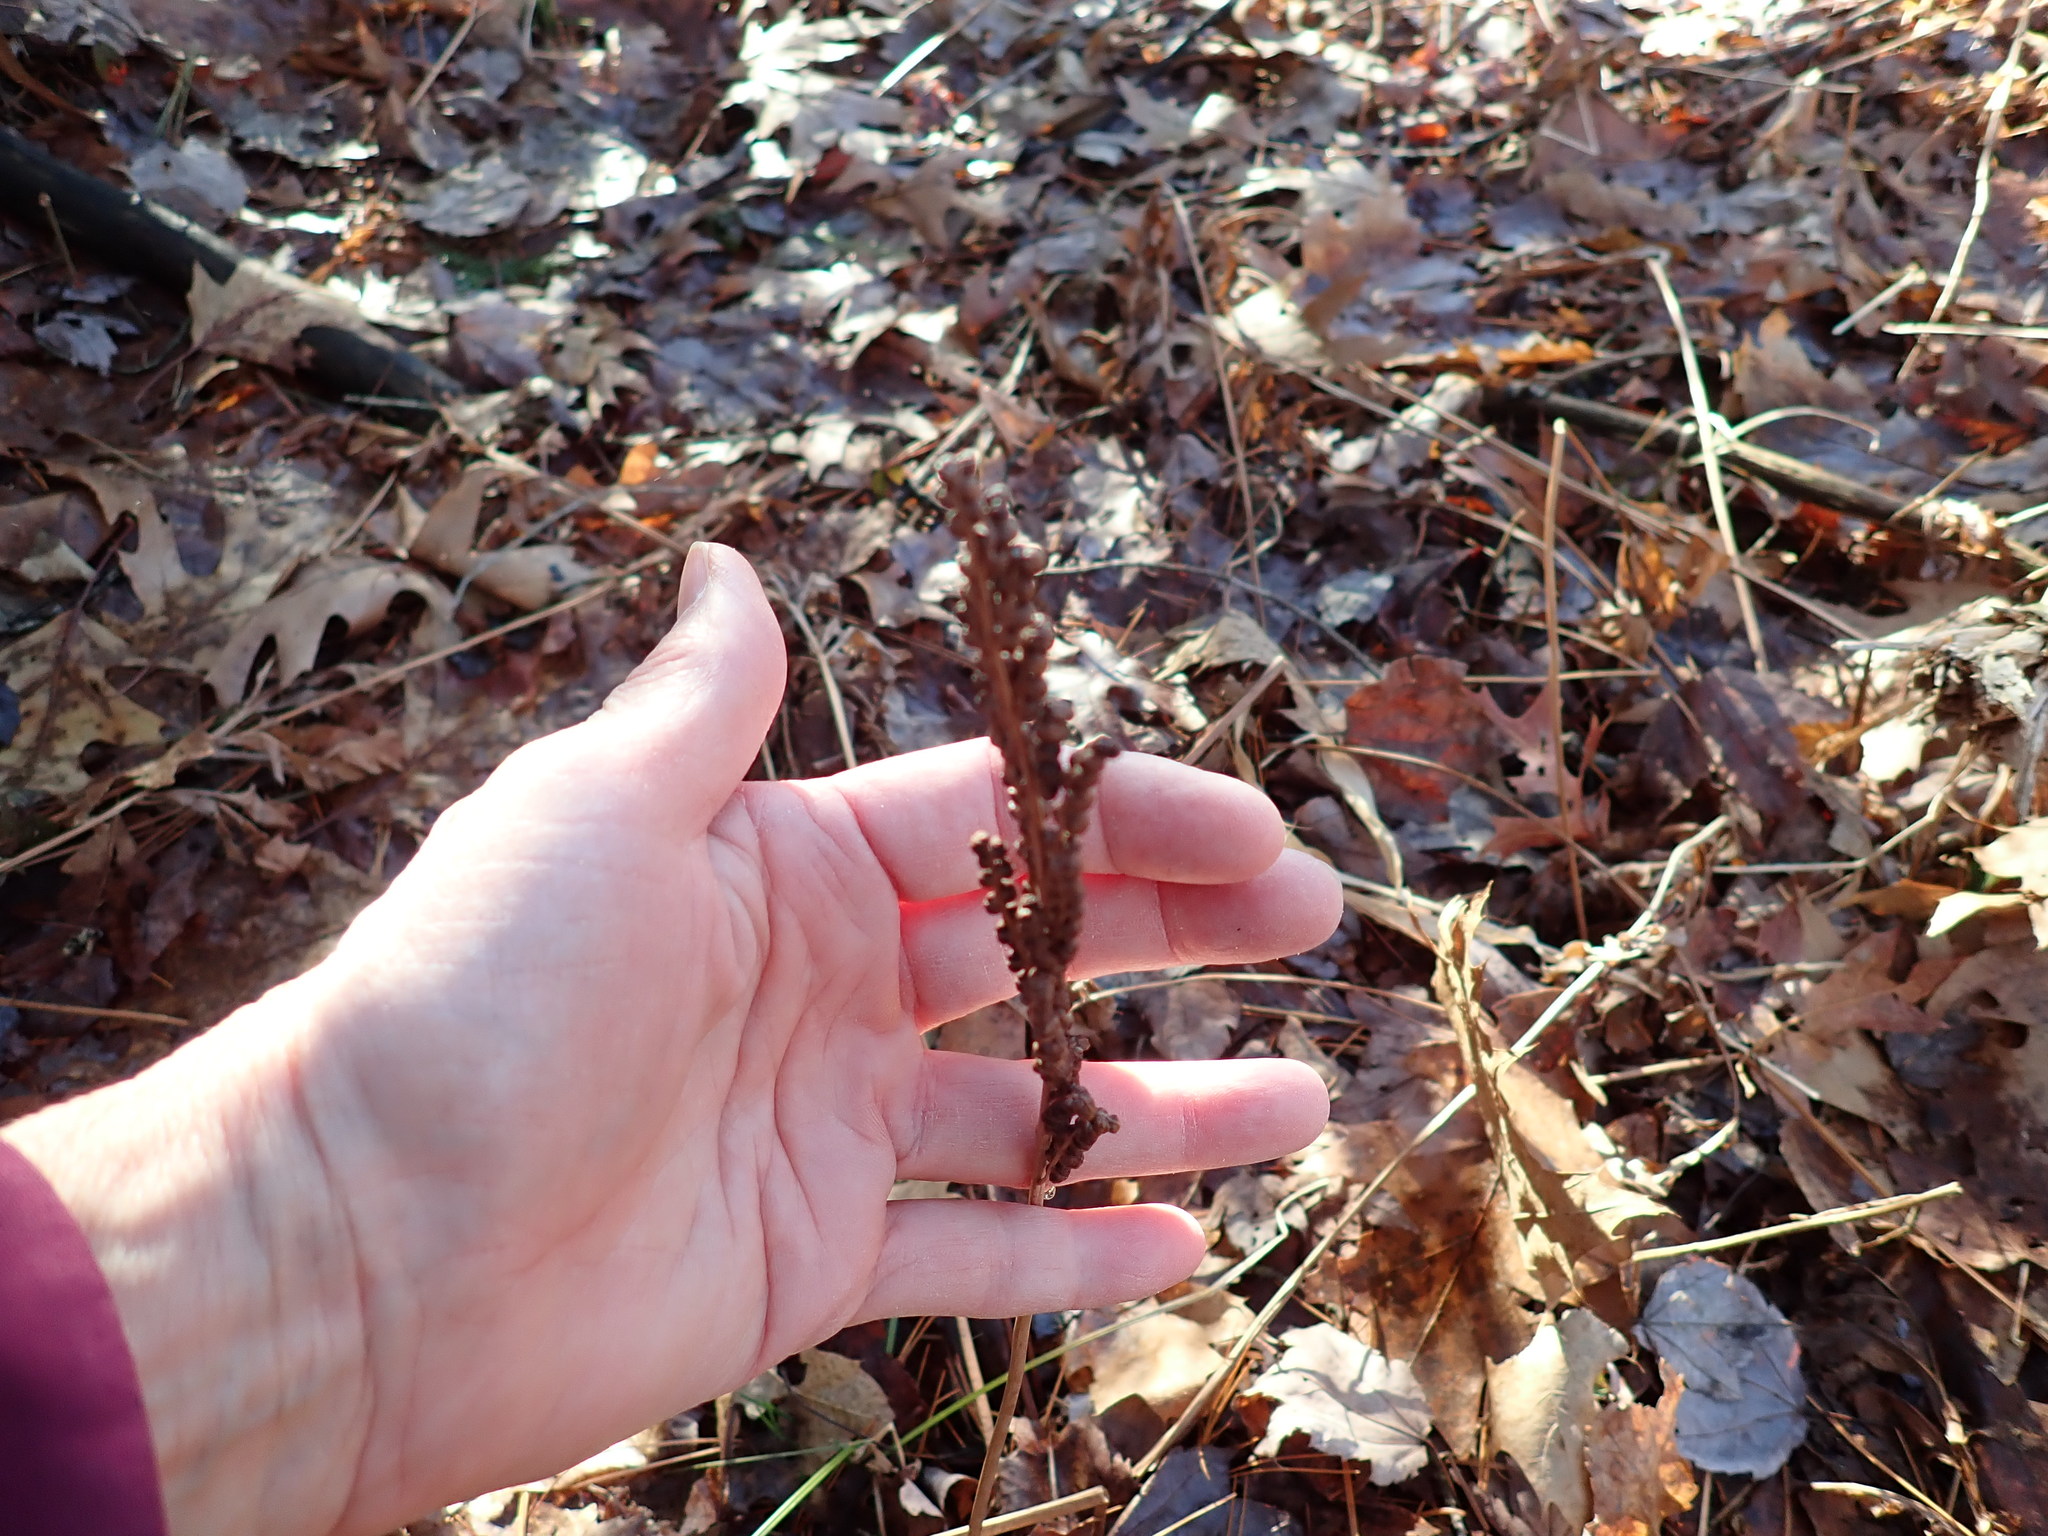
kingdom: Plantae
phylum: Tracheophyta
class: Polypodiopsida
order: Polypodiales
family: Onocleaceae
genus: Onoclea
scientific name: Onoclea sensibilis
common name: Sensitive fern
